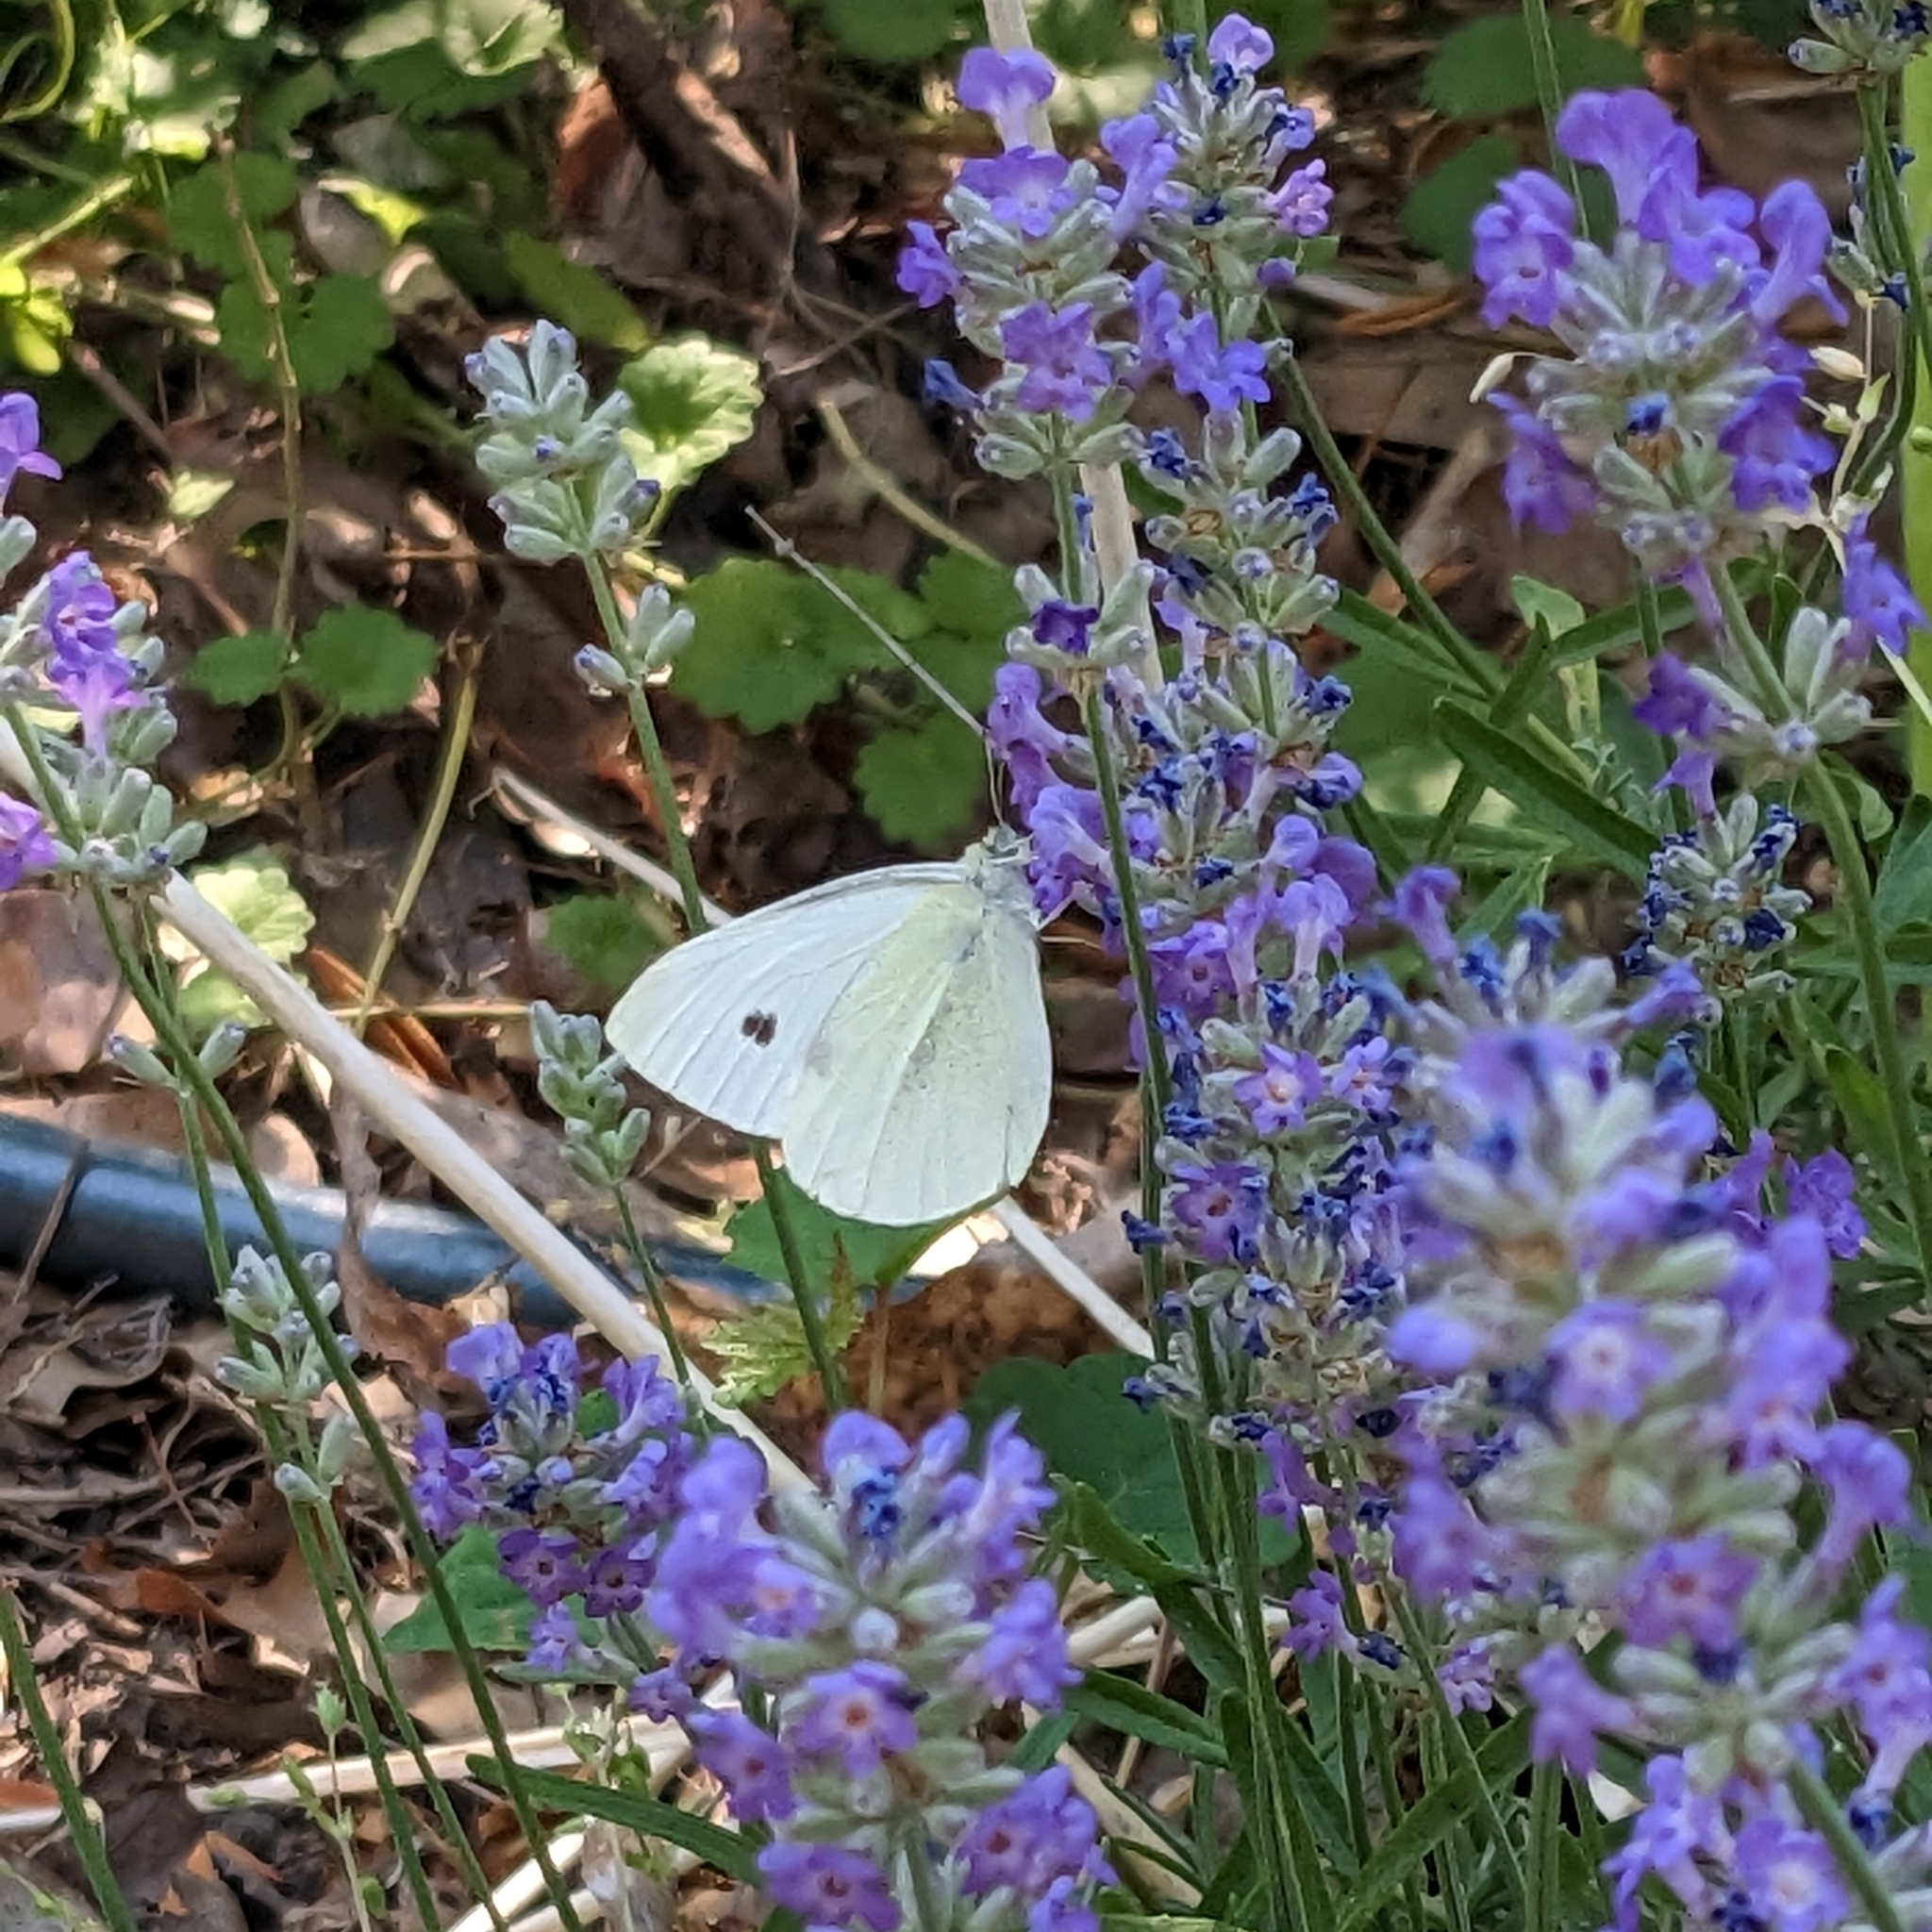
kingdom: Animalia
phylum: Arthropoda
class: Insecta
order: Lepidoptera
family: Pieridae
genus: Pieris
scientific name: Pieris rapae
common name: Small white
